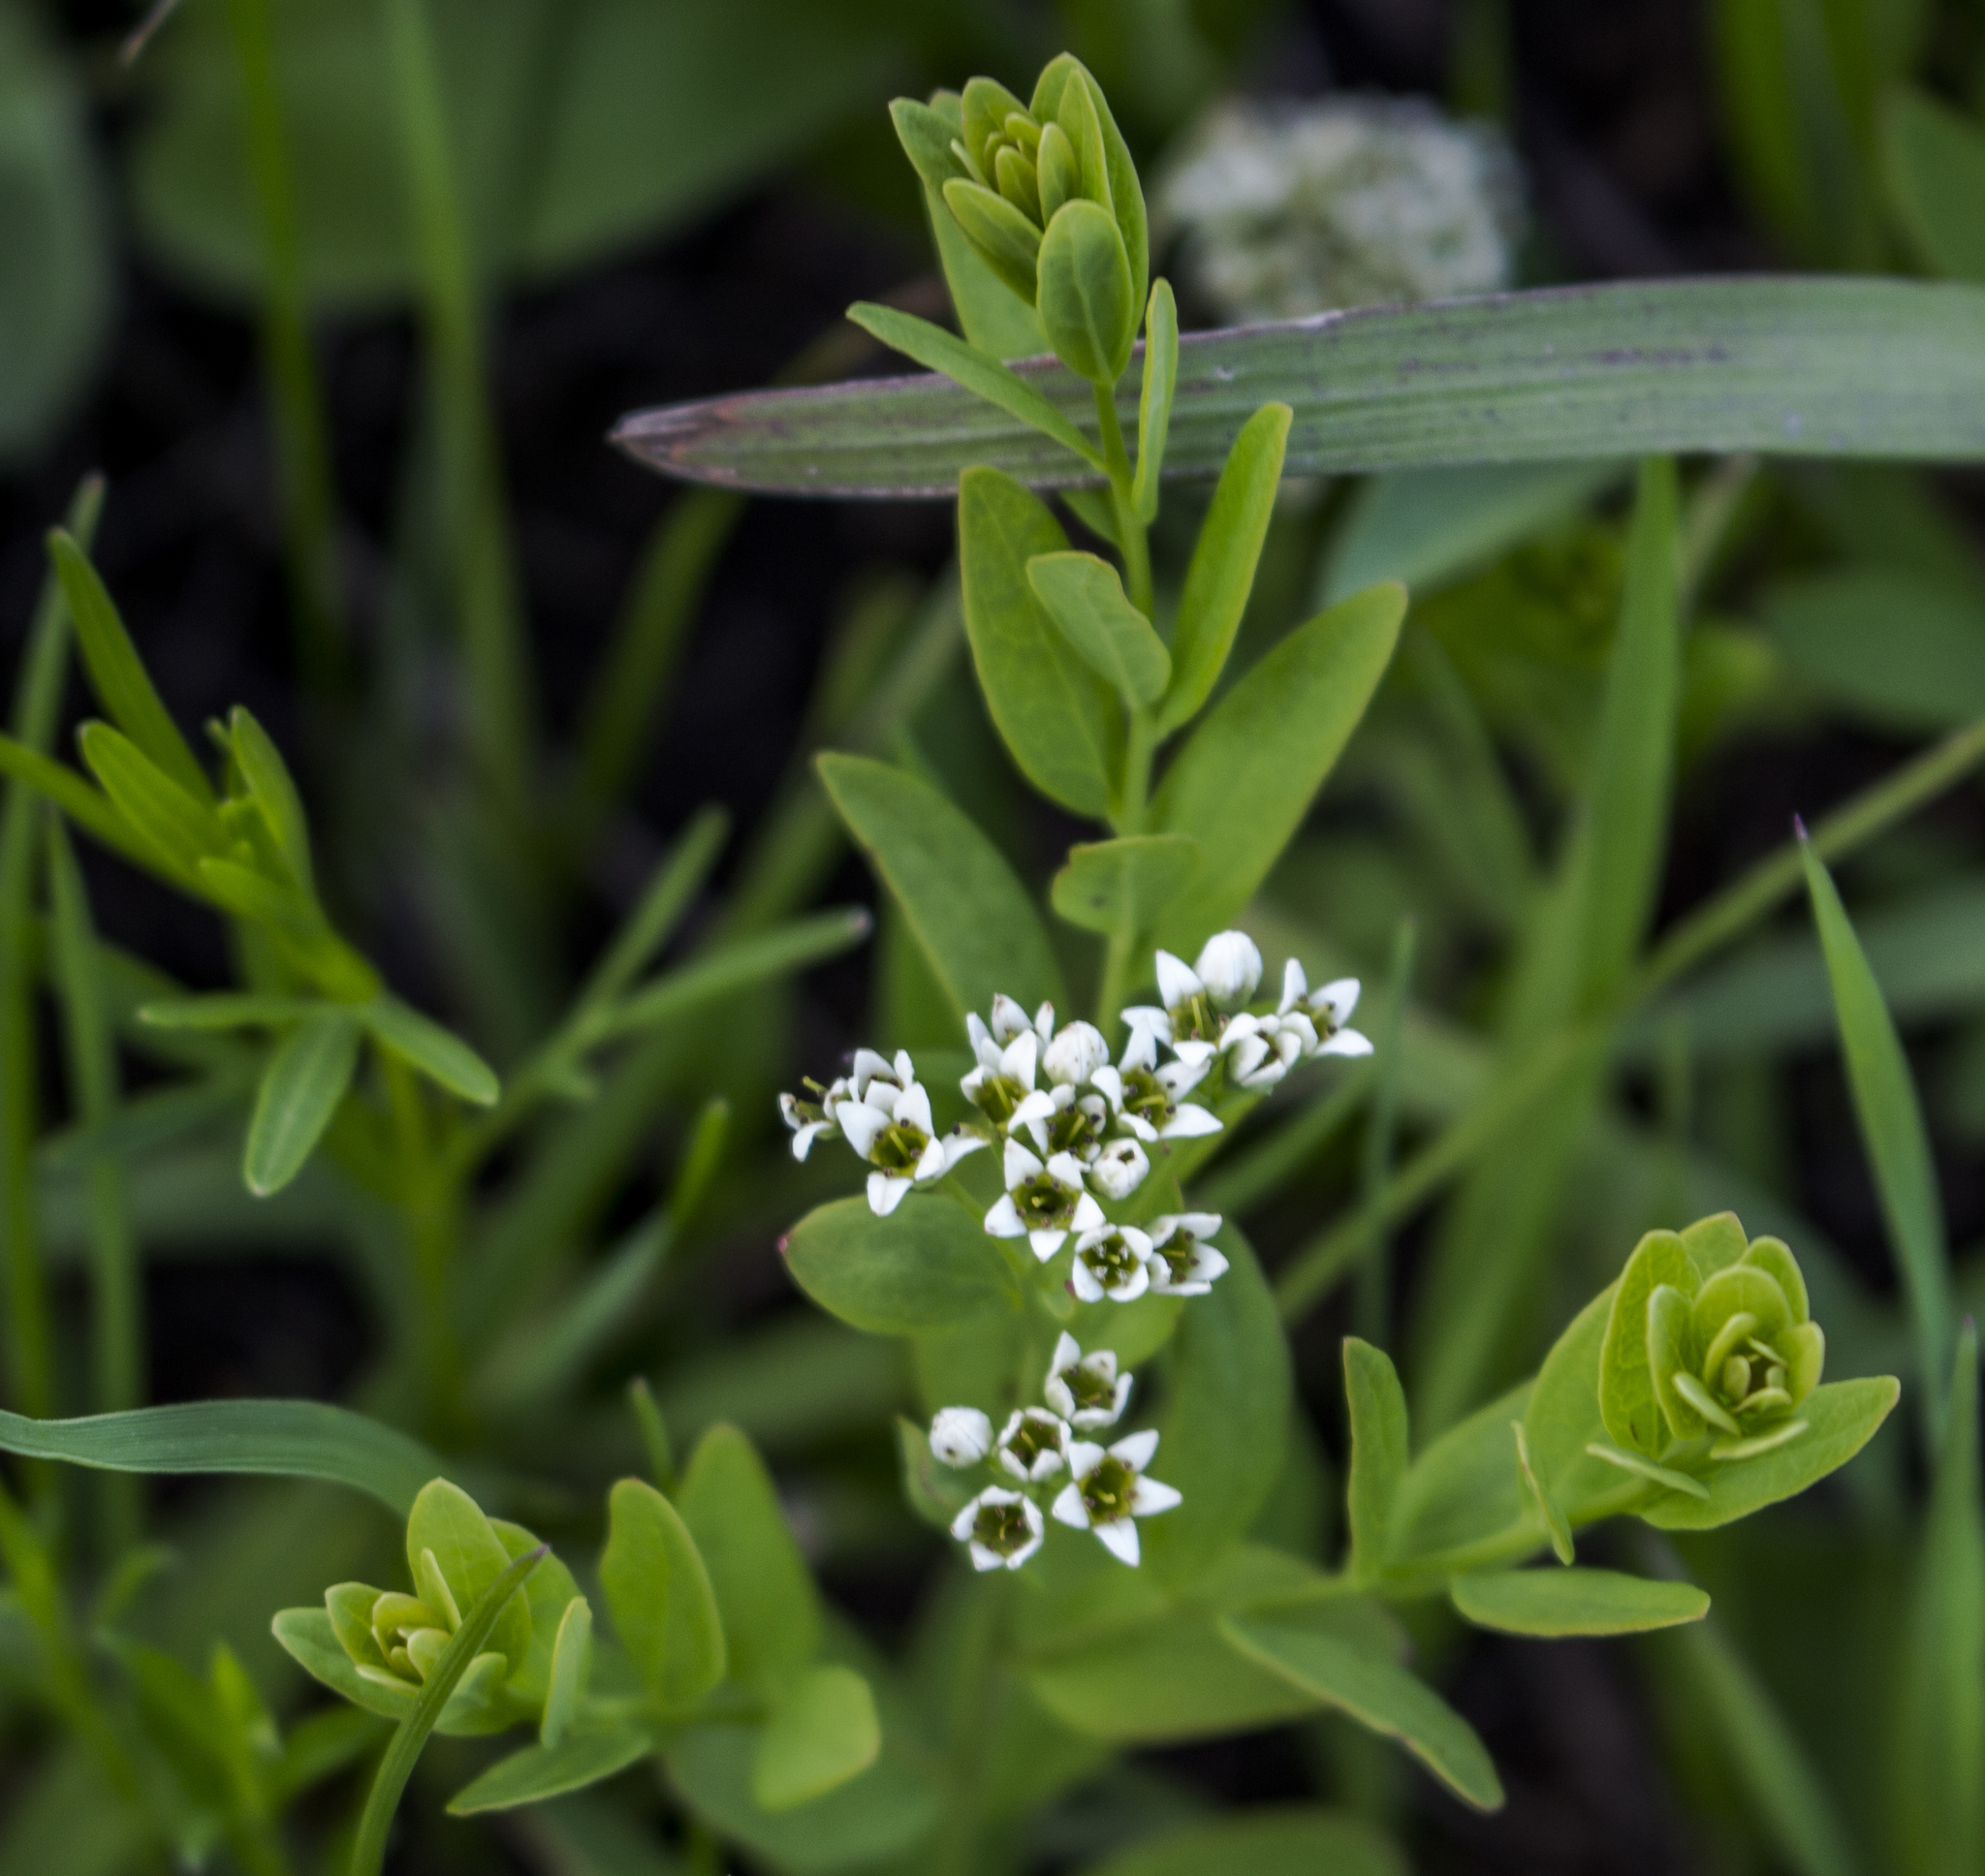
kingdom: Plantae
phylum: Tracheophyta
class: Magnoliopsida
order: Santalales
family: Comandraceae
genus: Comandra
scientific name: Comandra umbellata
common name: Bastard toadflax
